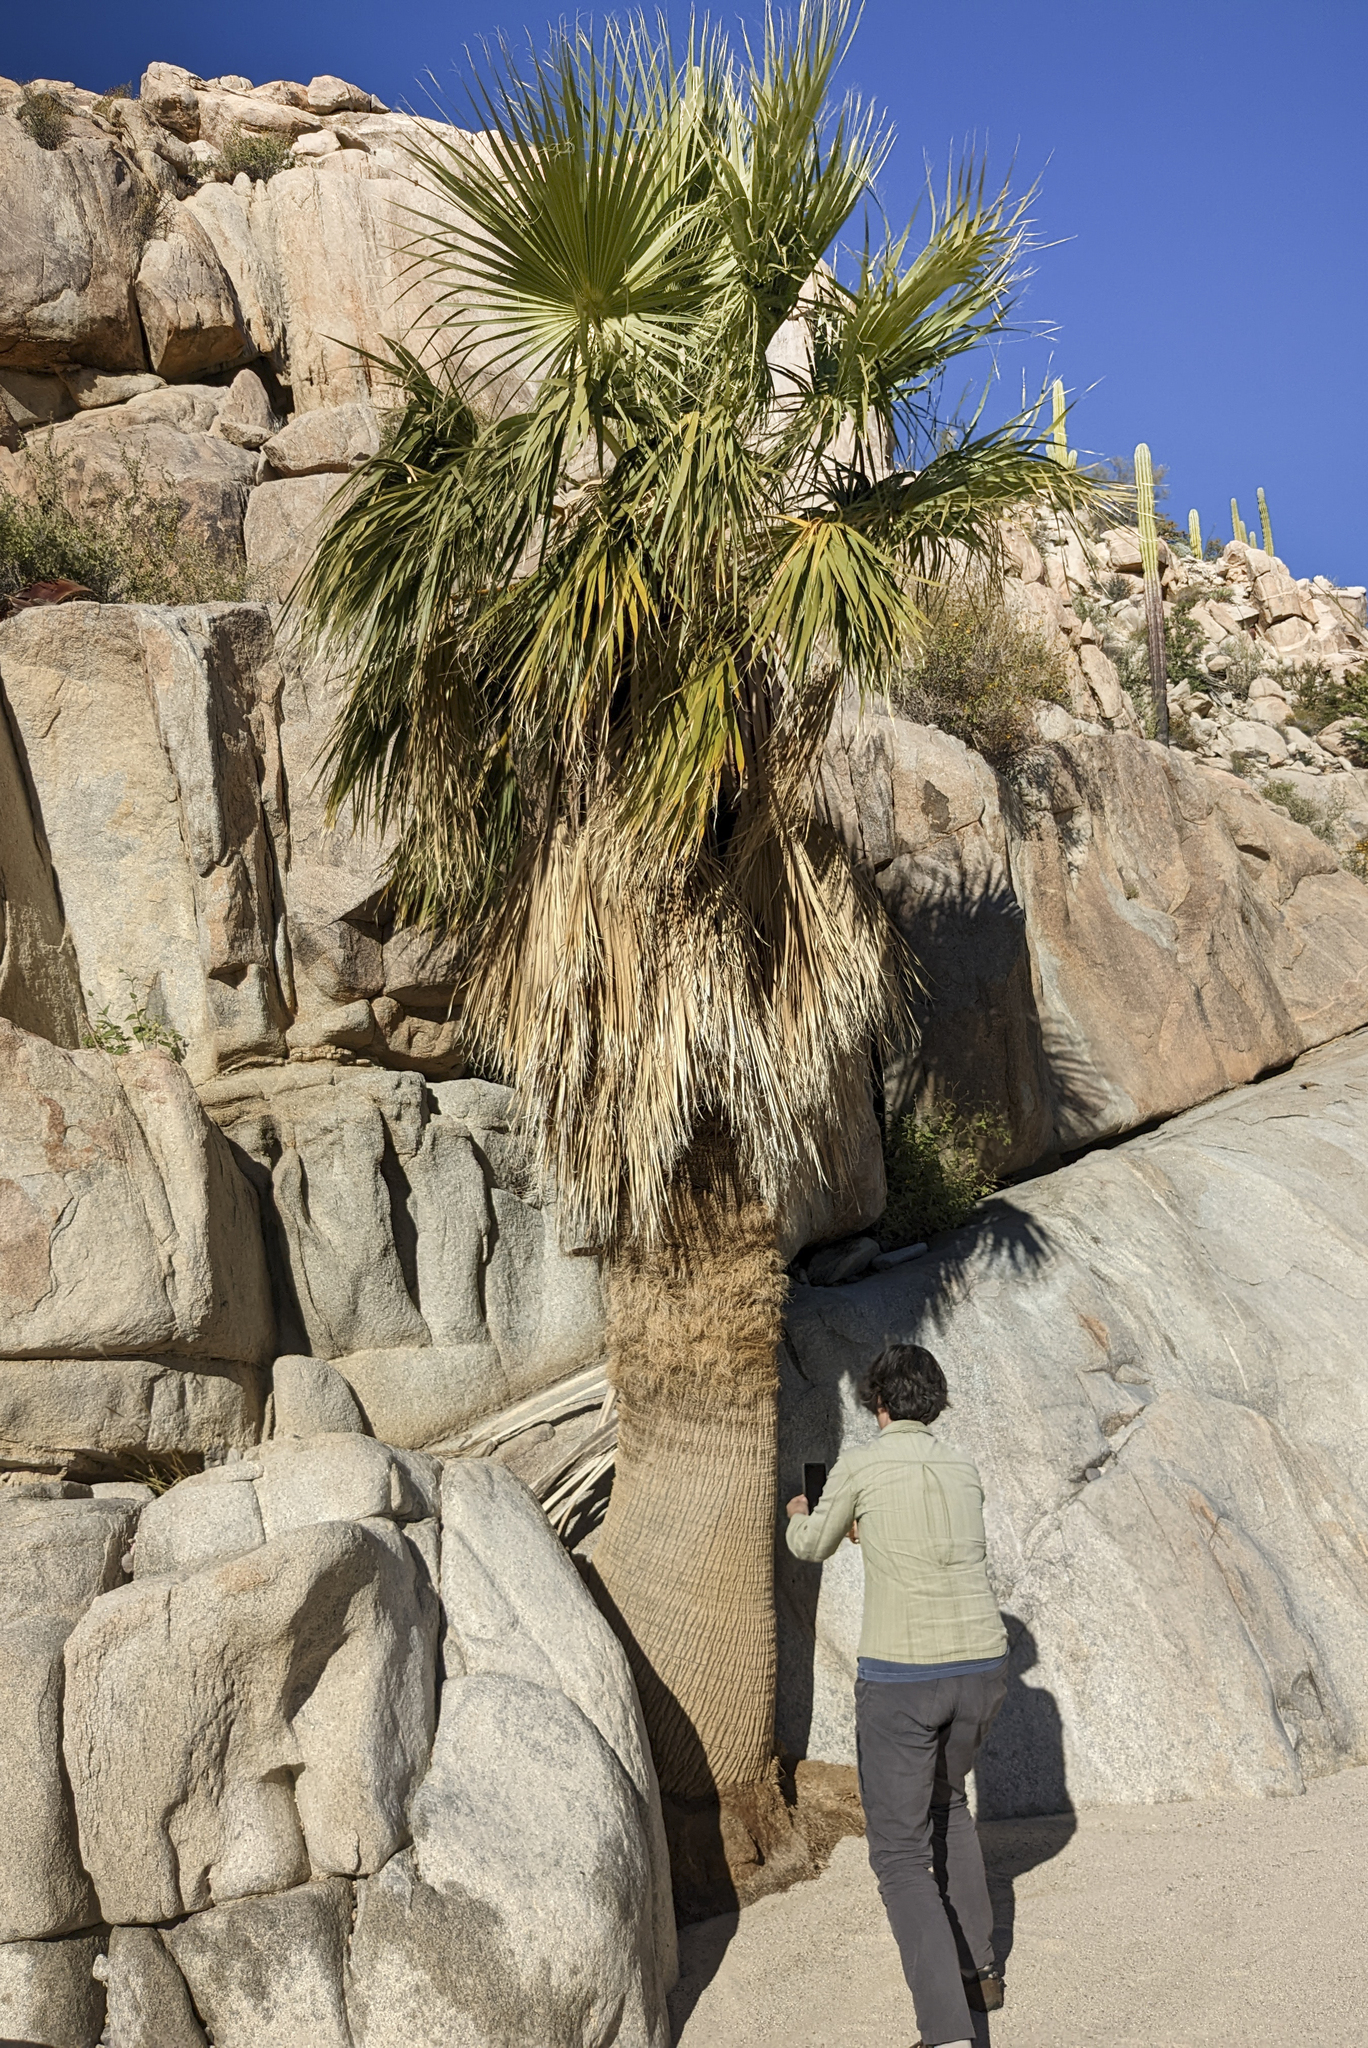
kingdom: Plantae
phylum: Tracheophyta
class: Liliopsida
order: Arecales
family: Arecaceae
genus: Washingtonia
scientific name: Washingtonia filifera
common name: California fan palm
